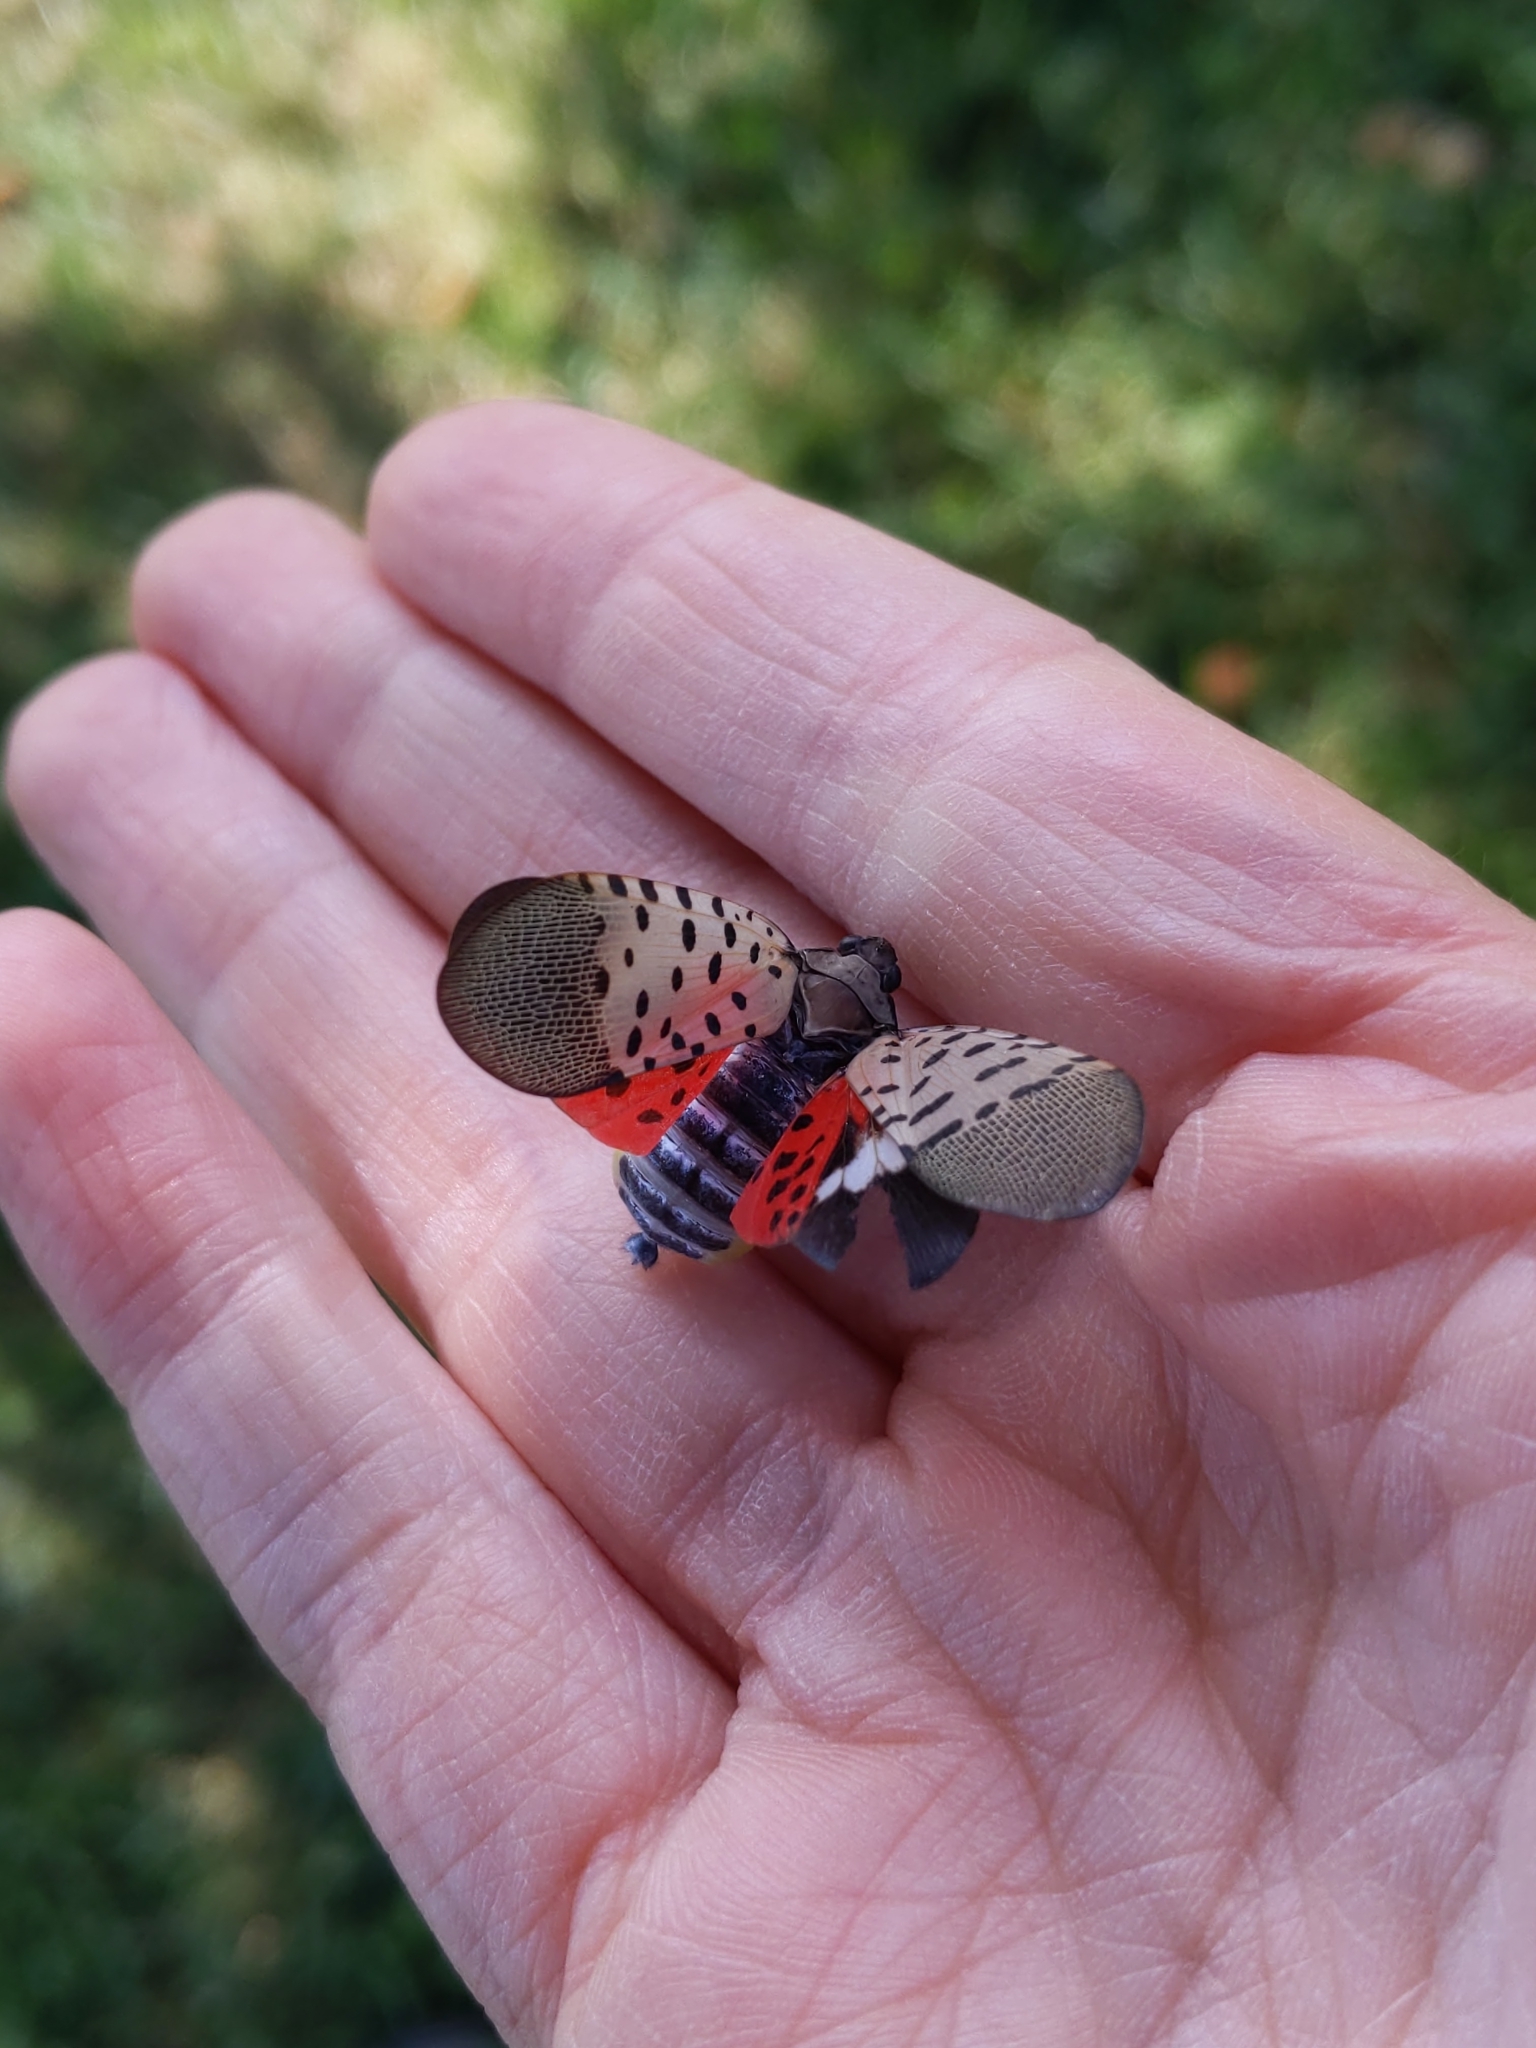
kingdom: Animalia
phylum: Arthropoda
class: Insecta
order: Hemiptera
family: Fulgoridae
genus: Lycorma
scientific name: Lycorma delicatula
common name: Spotted lanternfly
